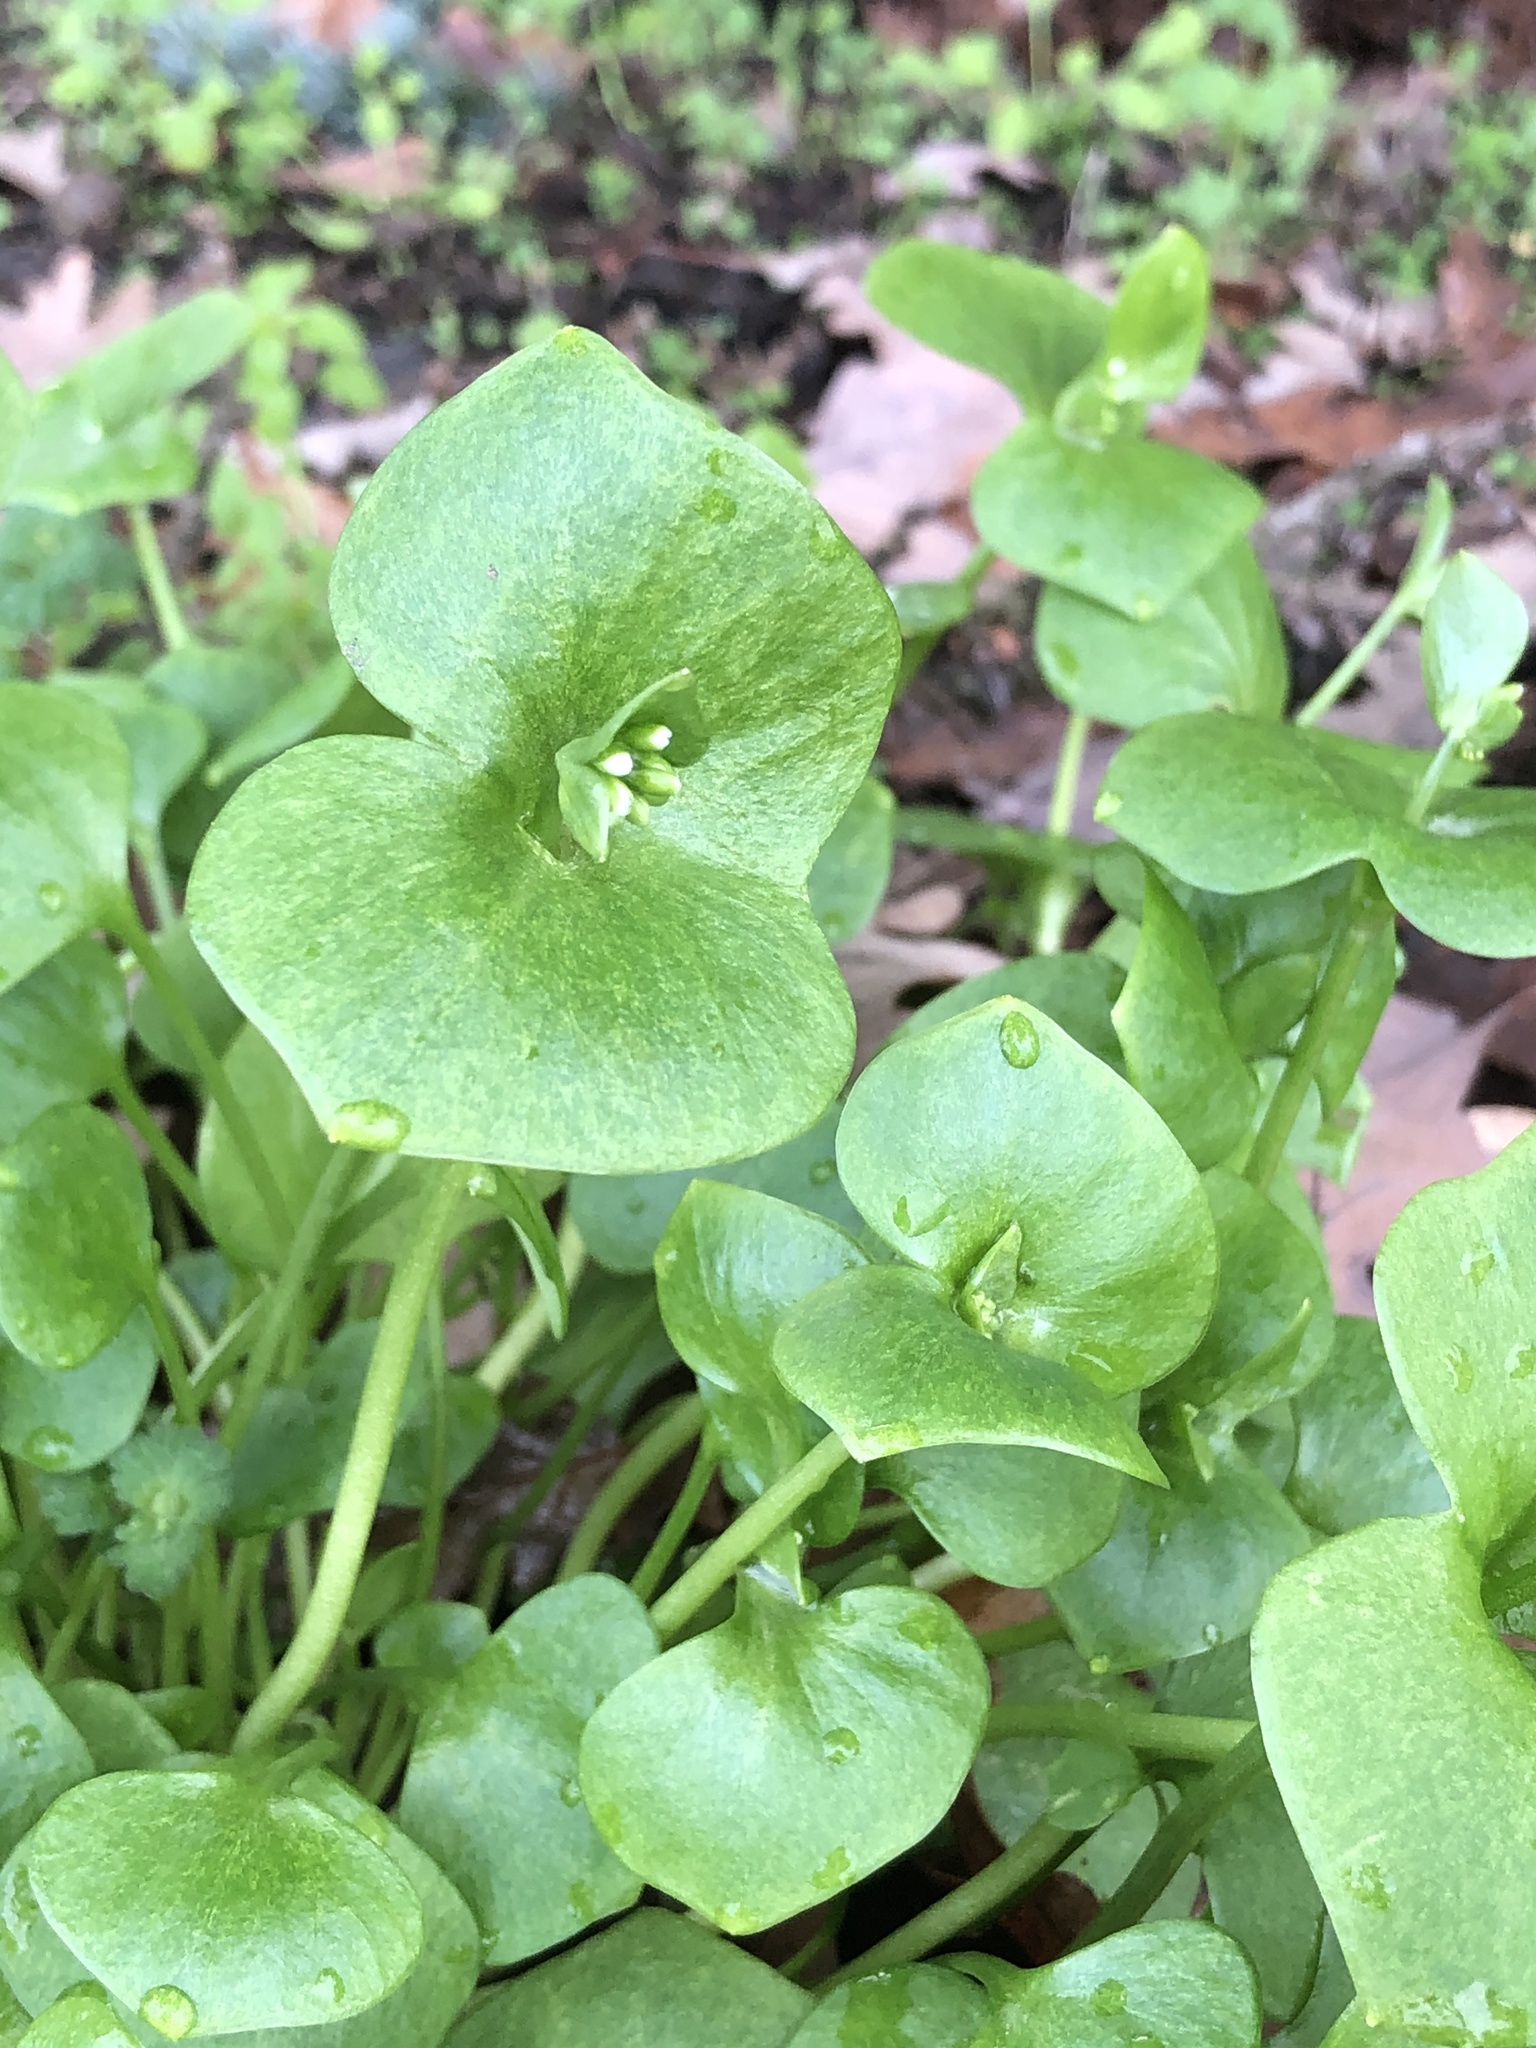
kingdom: Plantae
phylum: Tracheophyta
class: Magnoliopsida
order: Caryophyllales
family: Montiaceae
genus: Claytonia
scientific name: Claytonia perfoliata
